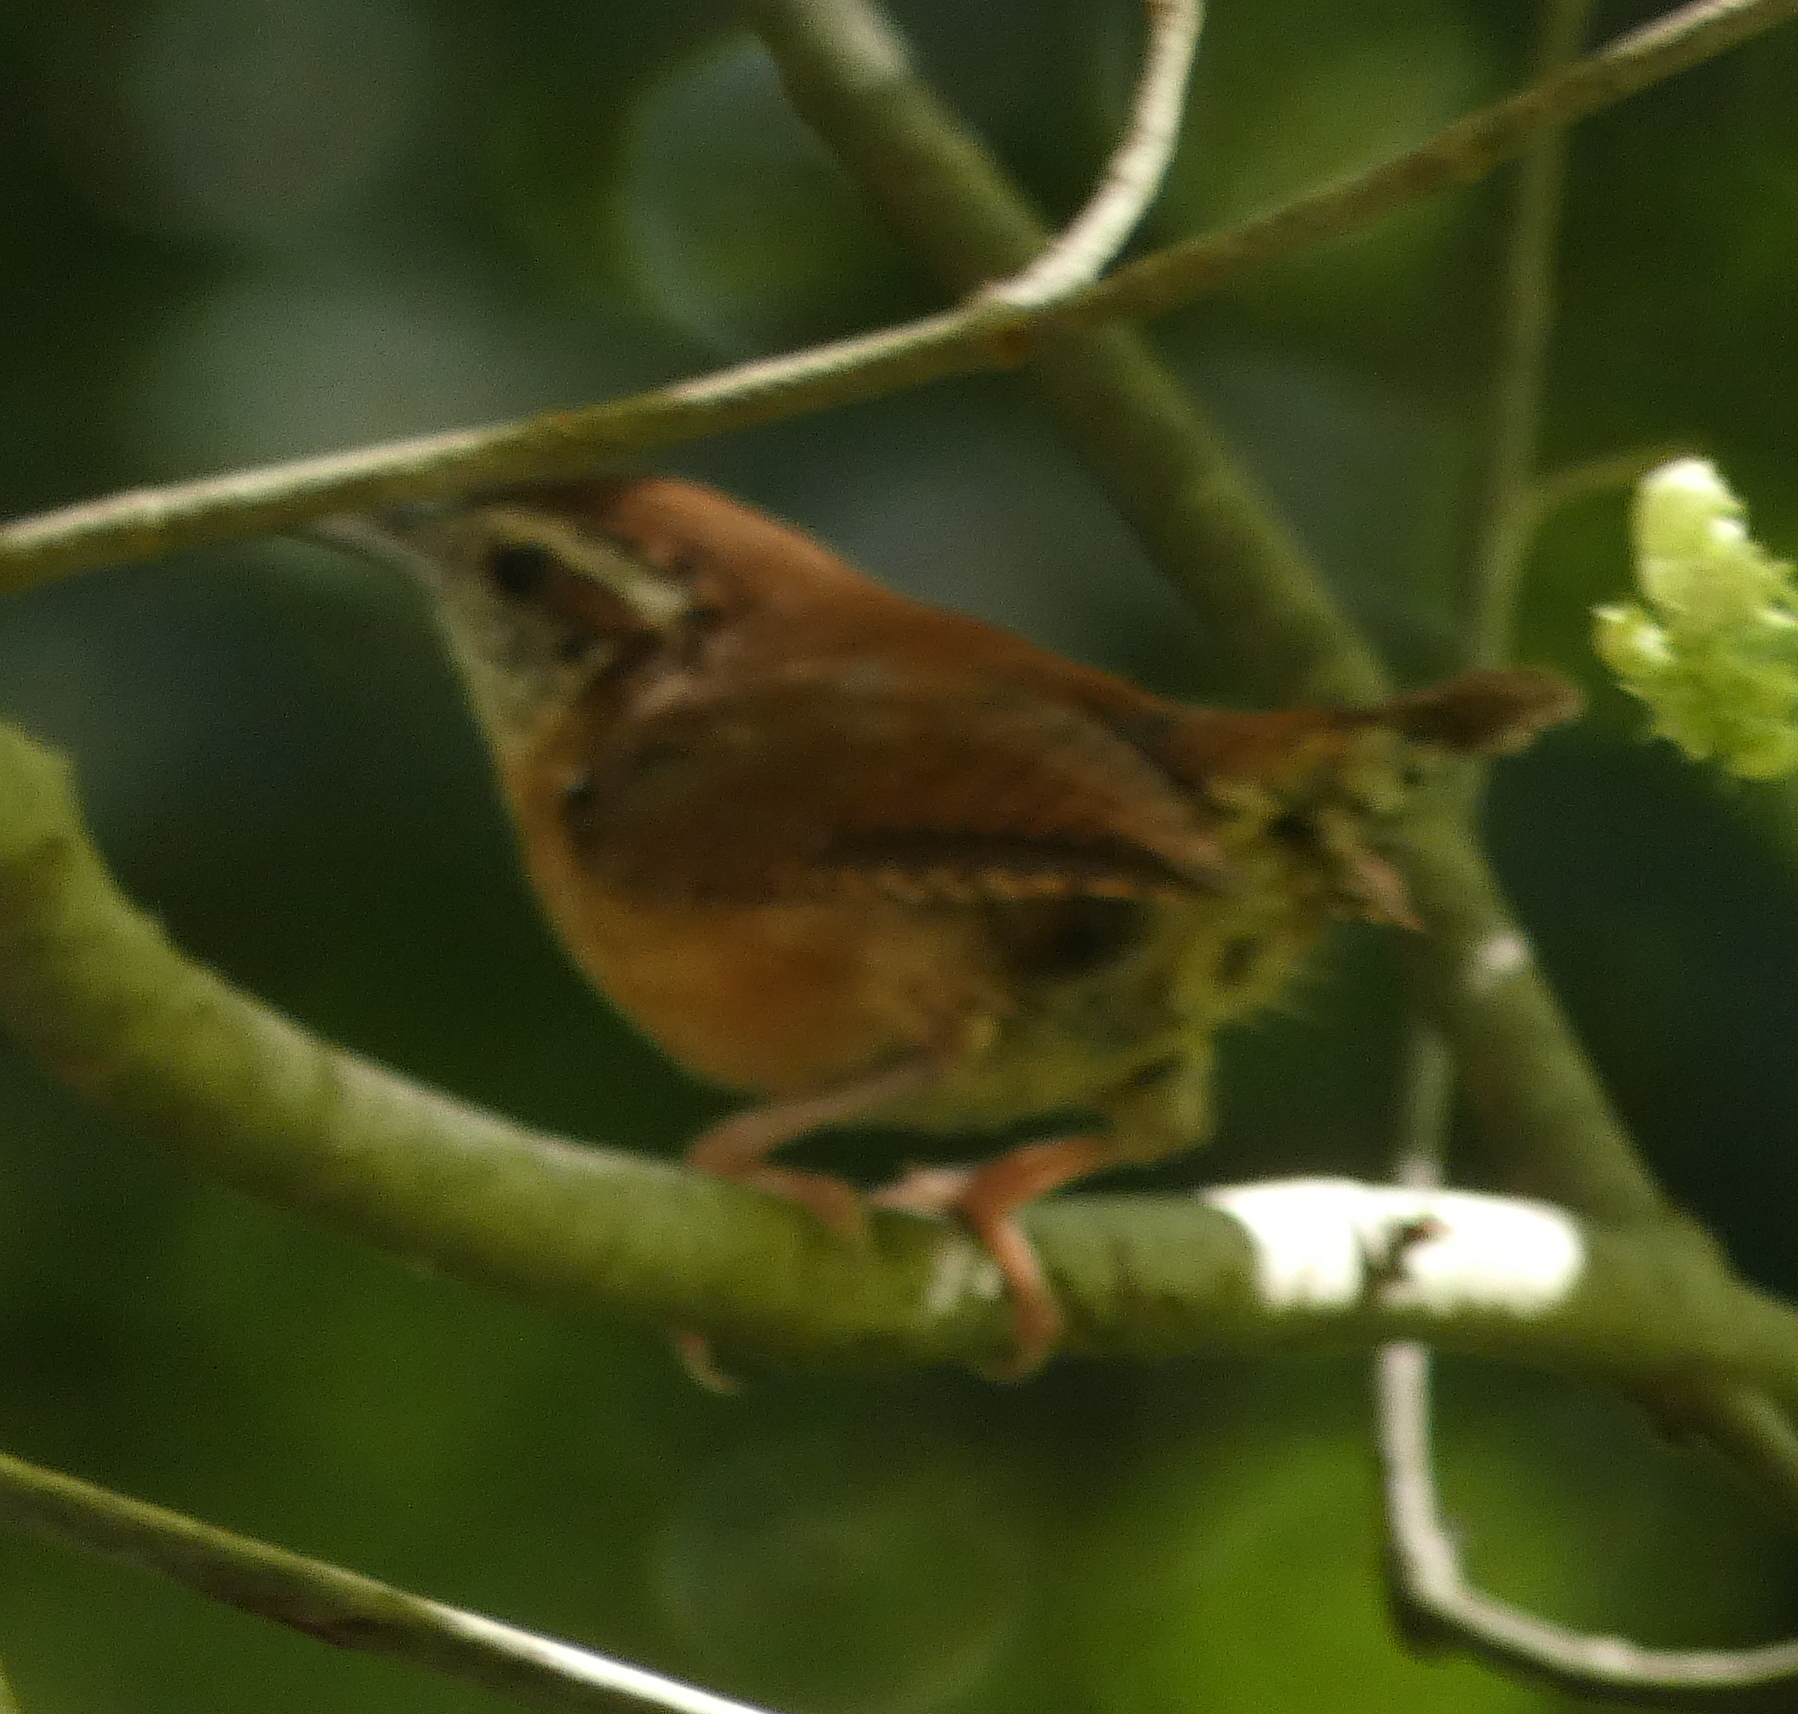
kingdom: Animalia
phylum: Chordata
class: Aves
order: Passeriformes
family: Troglodytidae
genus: Thryothorus
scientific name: Thryothorus ludovicianus
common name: Carolina wren
